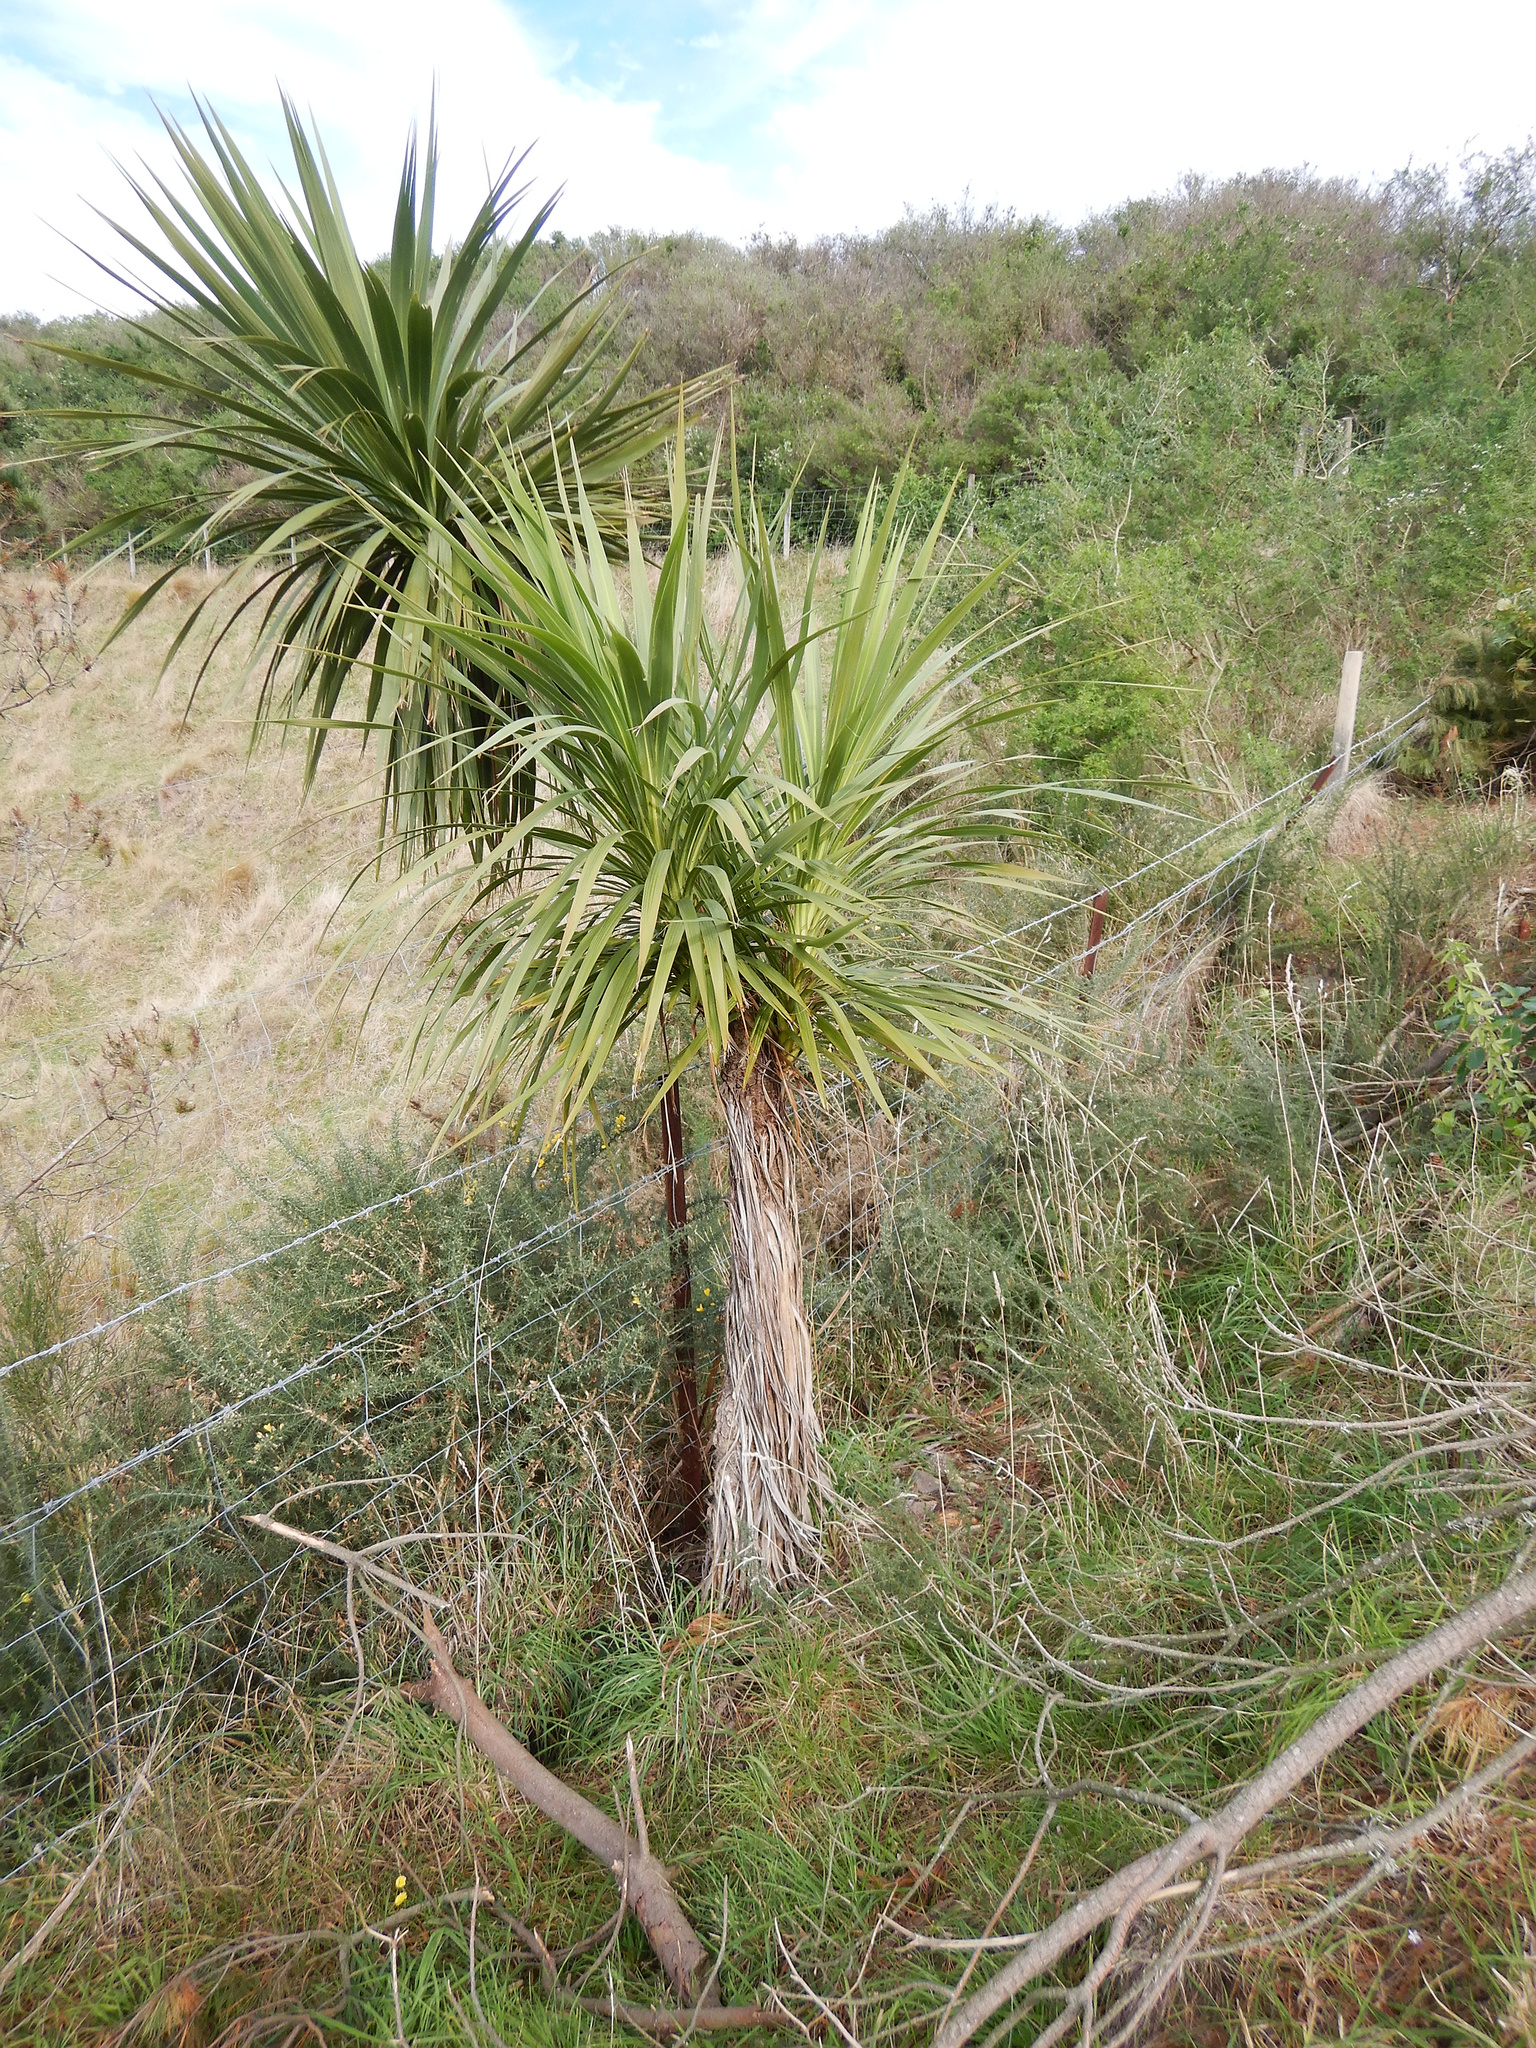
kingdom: Plantae
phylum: Tracheophyta
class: Liliopsida
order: Asparagales
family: Asparagaceae
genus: Cordyline
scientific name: Cordyline australis
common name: Cabbage-palm
